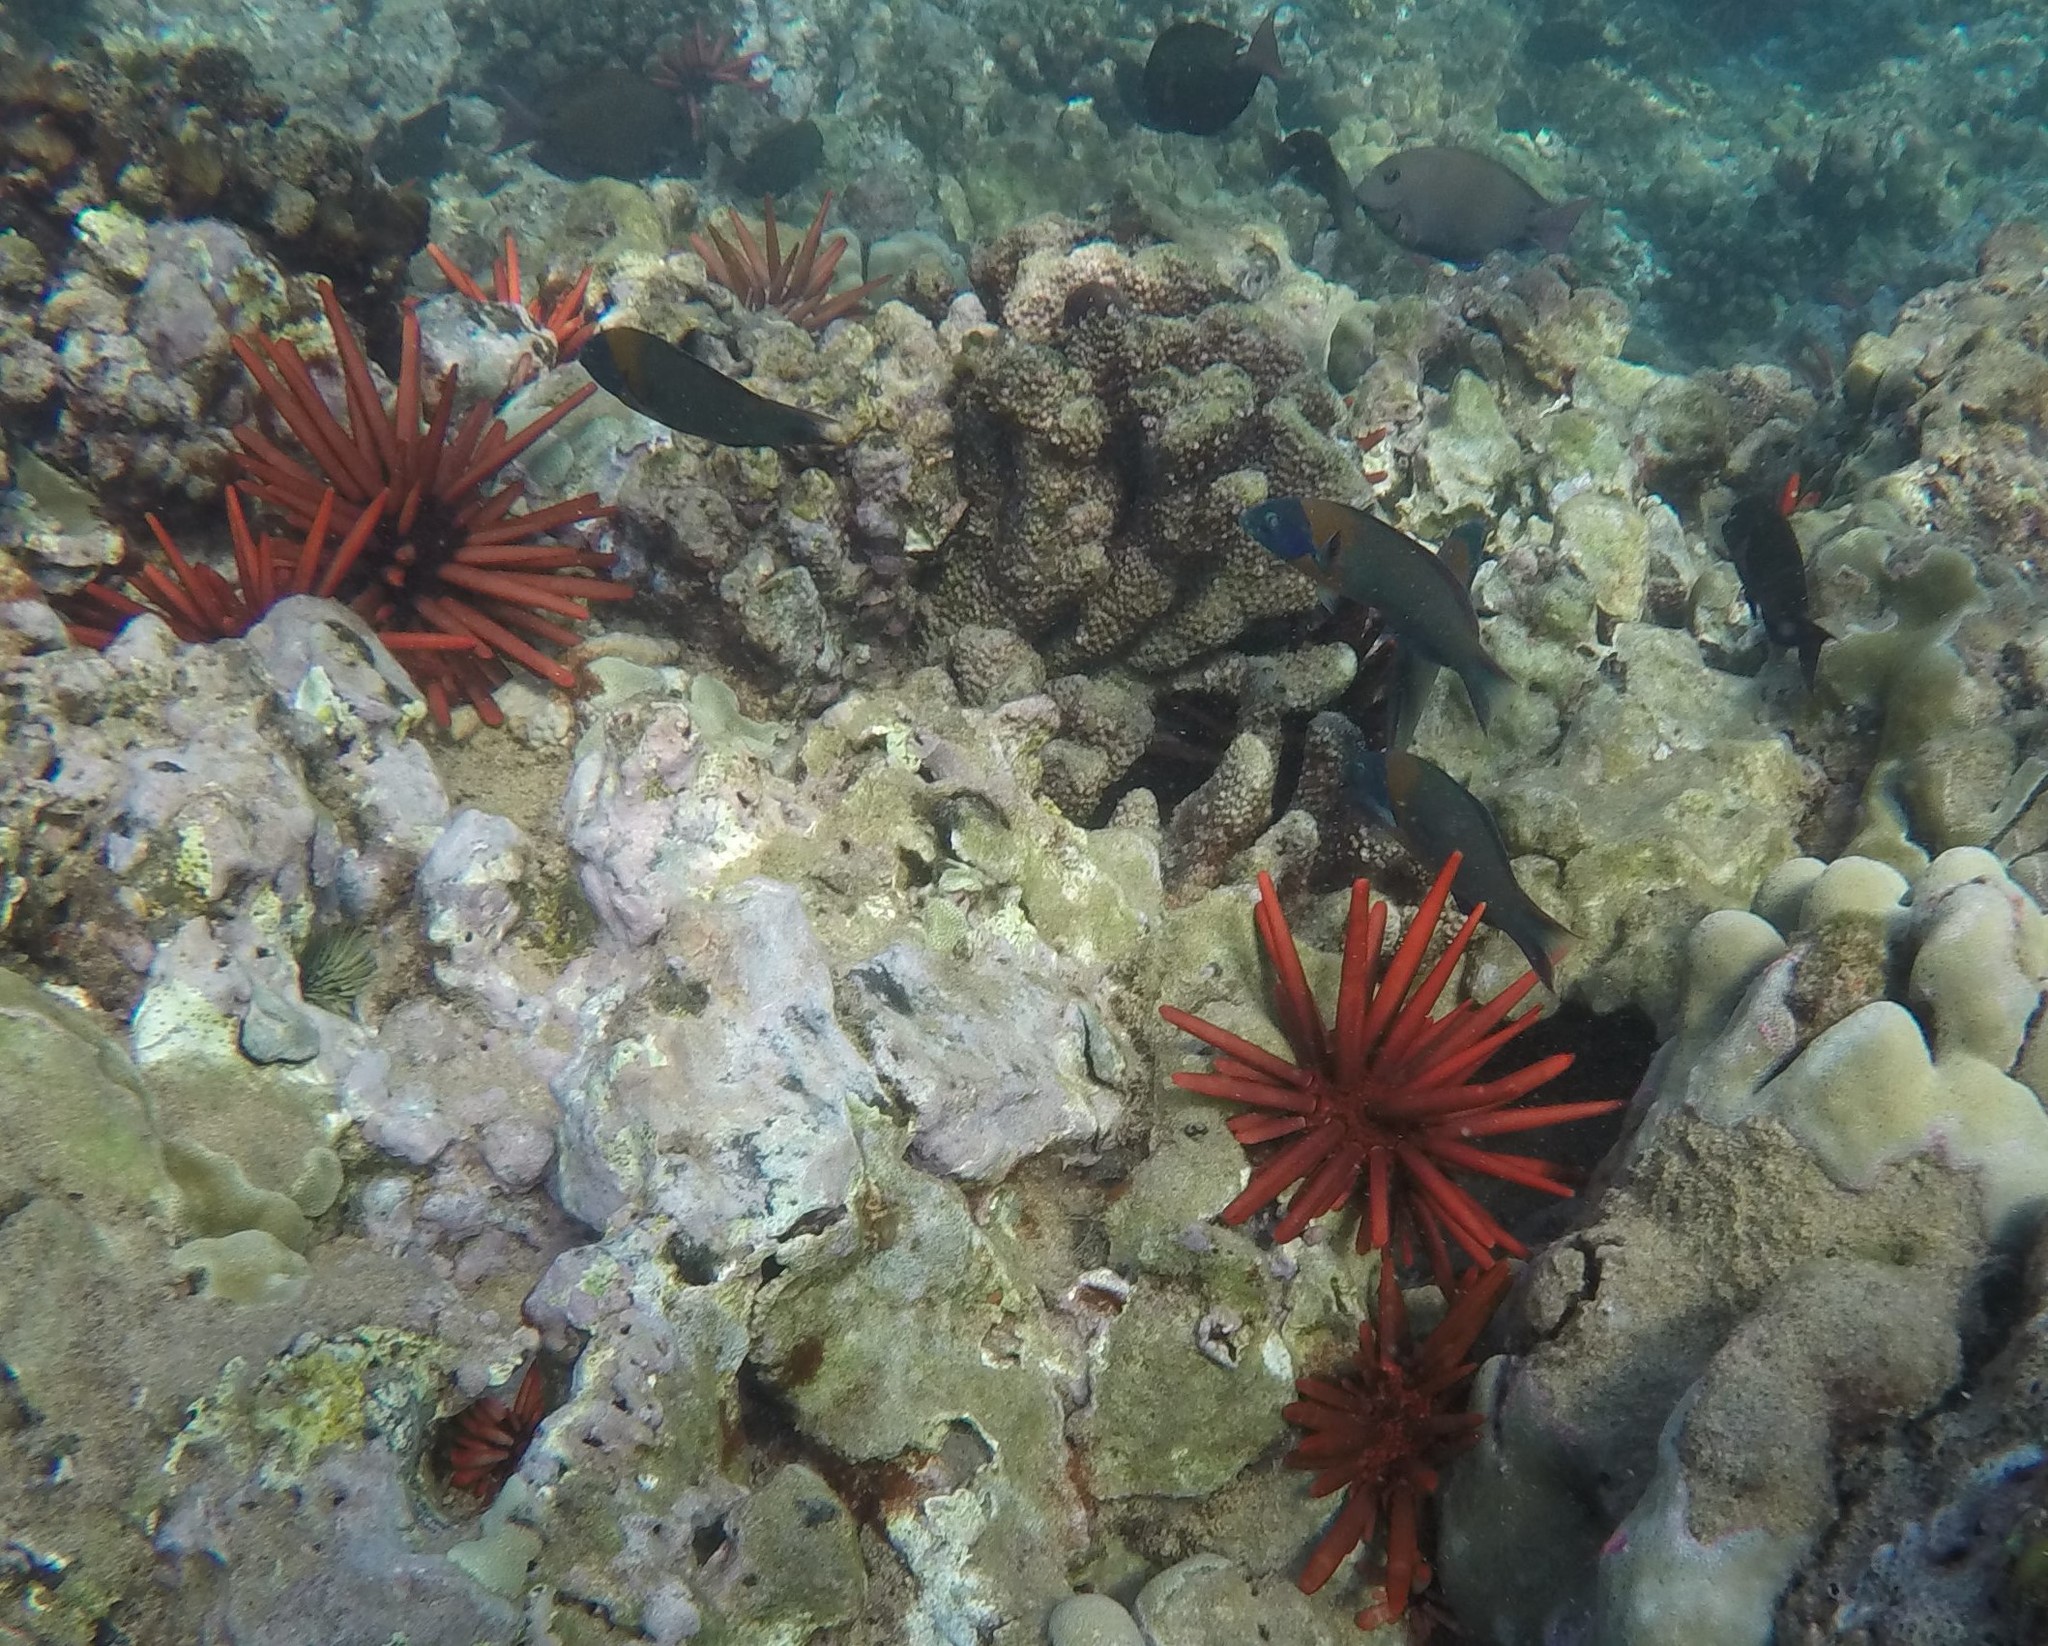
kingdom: Animalia
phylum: Chordata
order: Perciformes
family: Labridae
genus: Thalassoma
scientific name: Thalassoma duperrey
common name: Saddle wrasse
